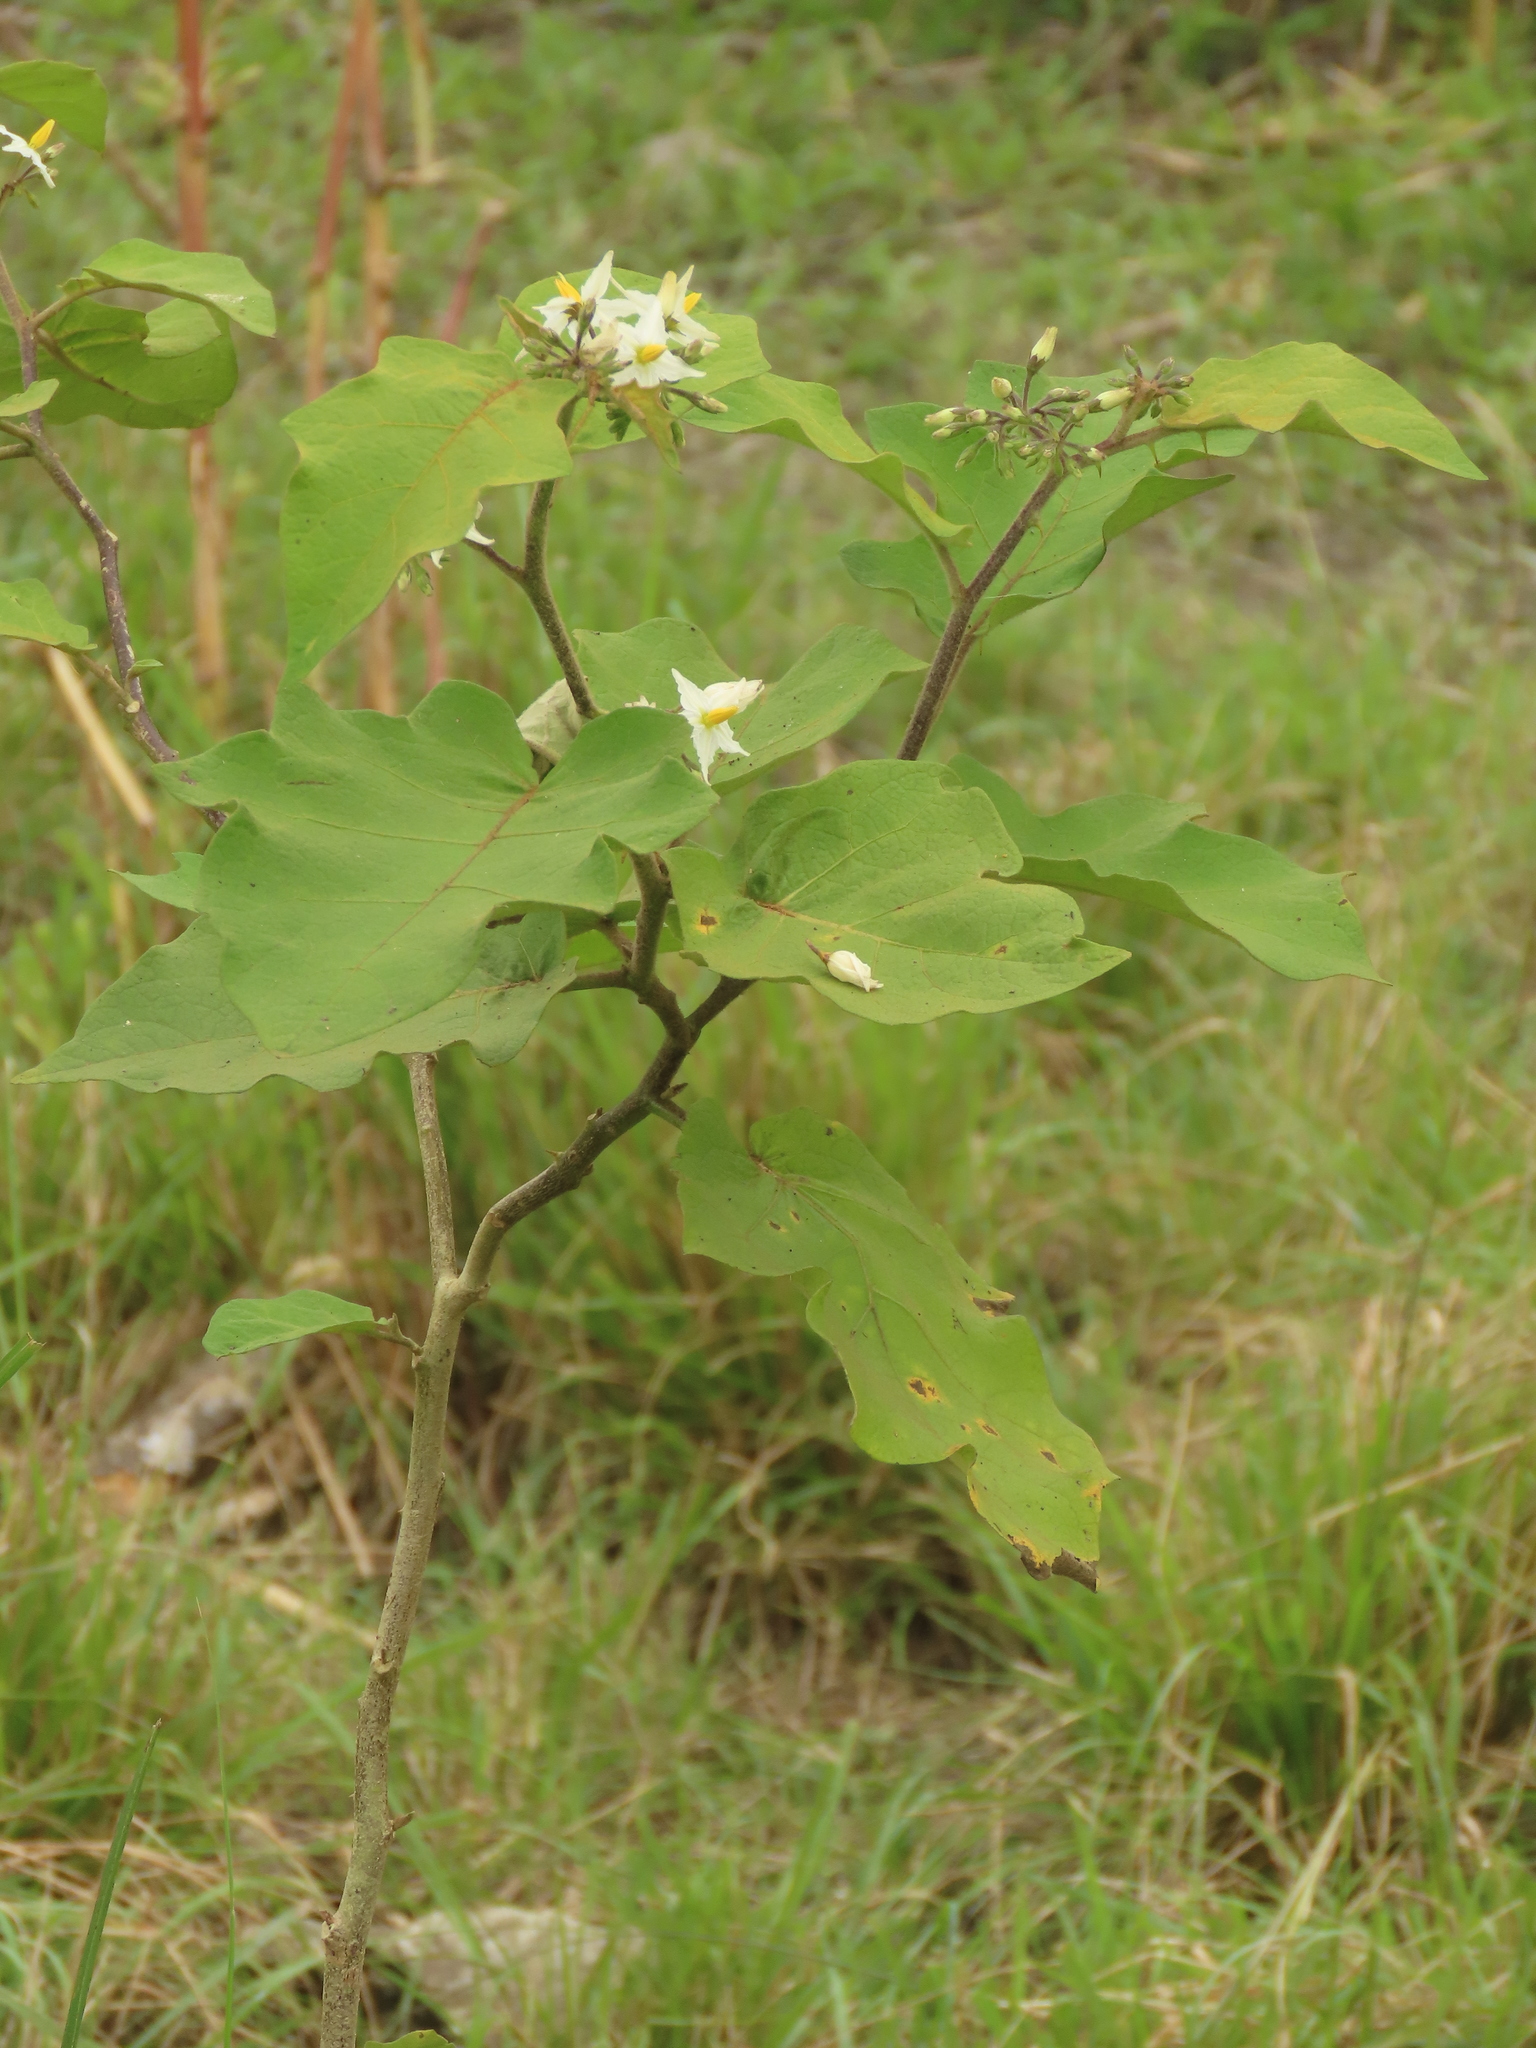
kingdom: Plantae
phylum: Tracheophyta
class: Magnoliopsida
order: Solanales
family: Solanaceae
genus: Solanum
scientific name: Solanum torvum
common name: Turkey berry
